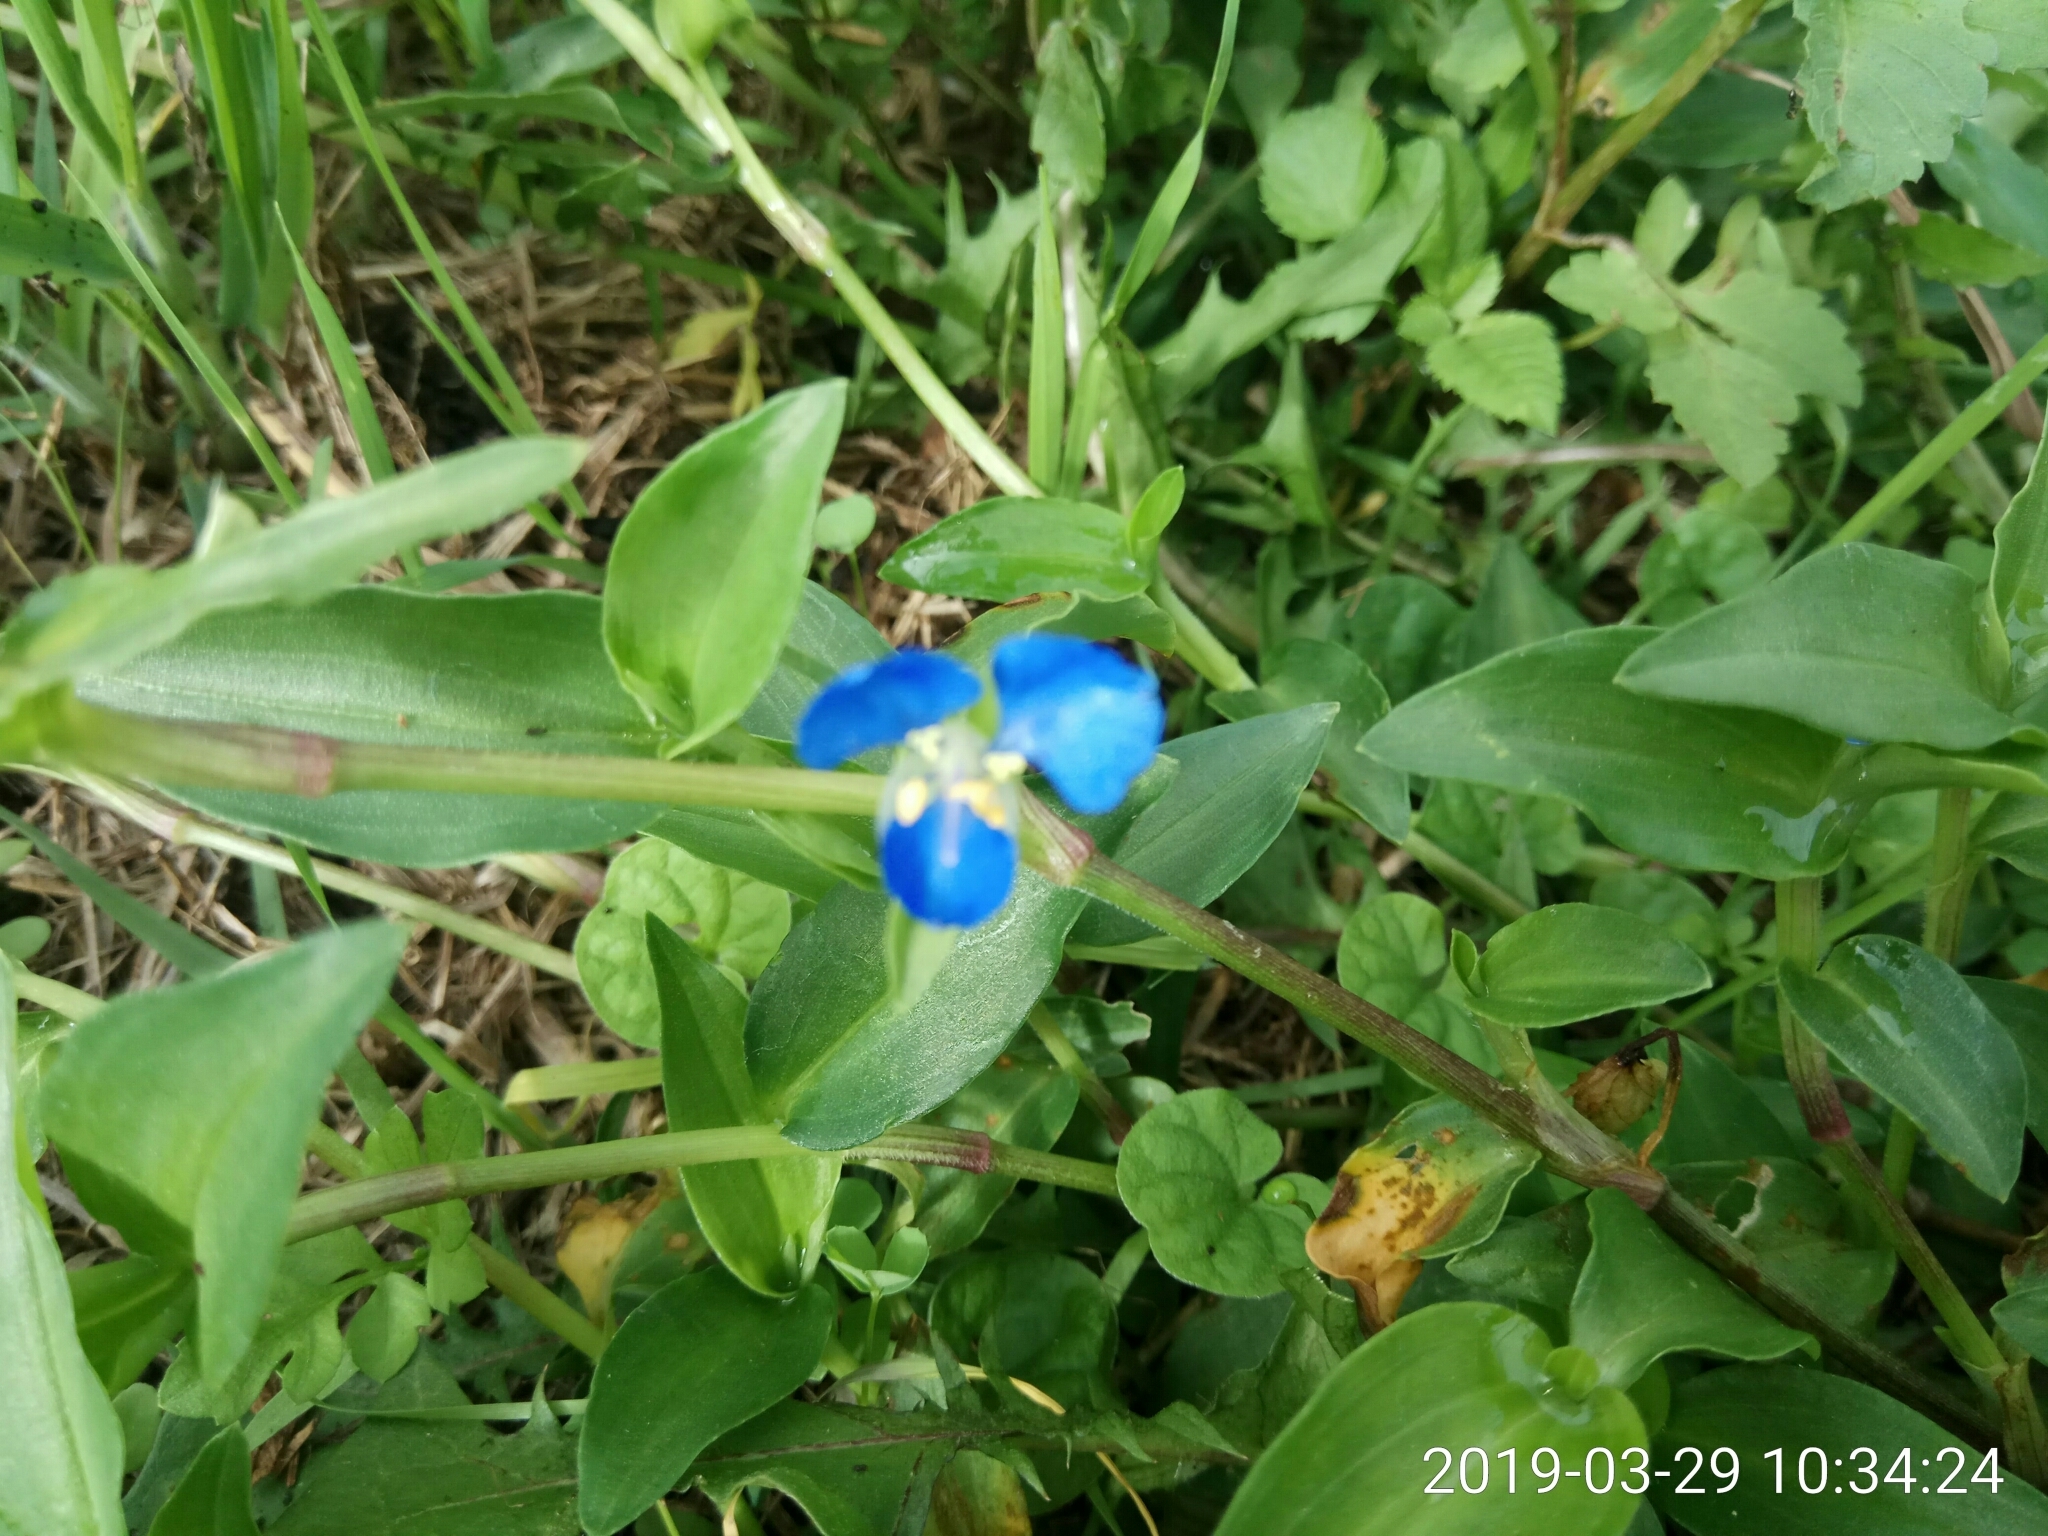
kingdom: Plantae
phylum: Tracheophyta
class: Liliopsida
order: Commelinales
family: Commelinaceae
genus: Commelina
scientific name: Commelina cyanea
